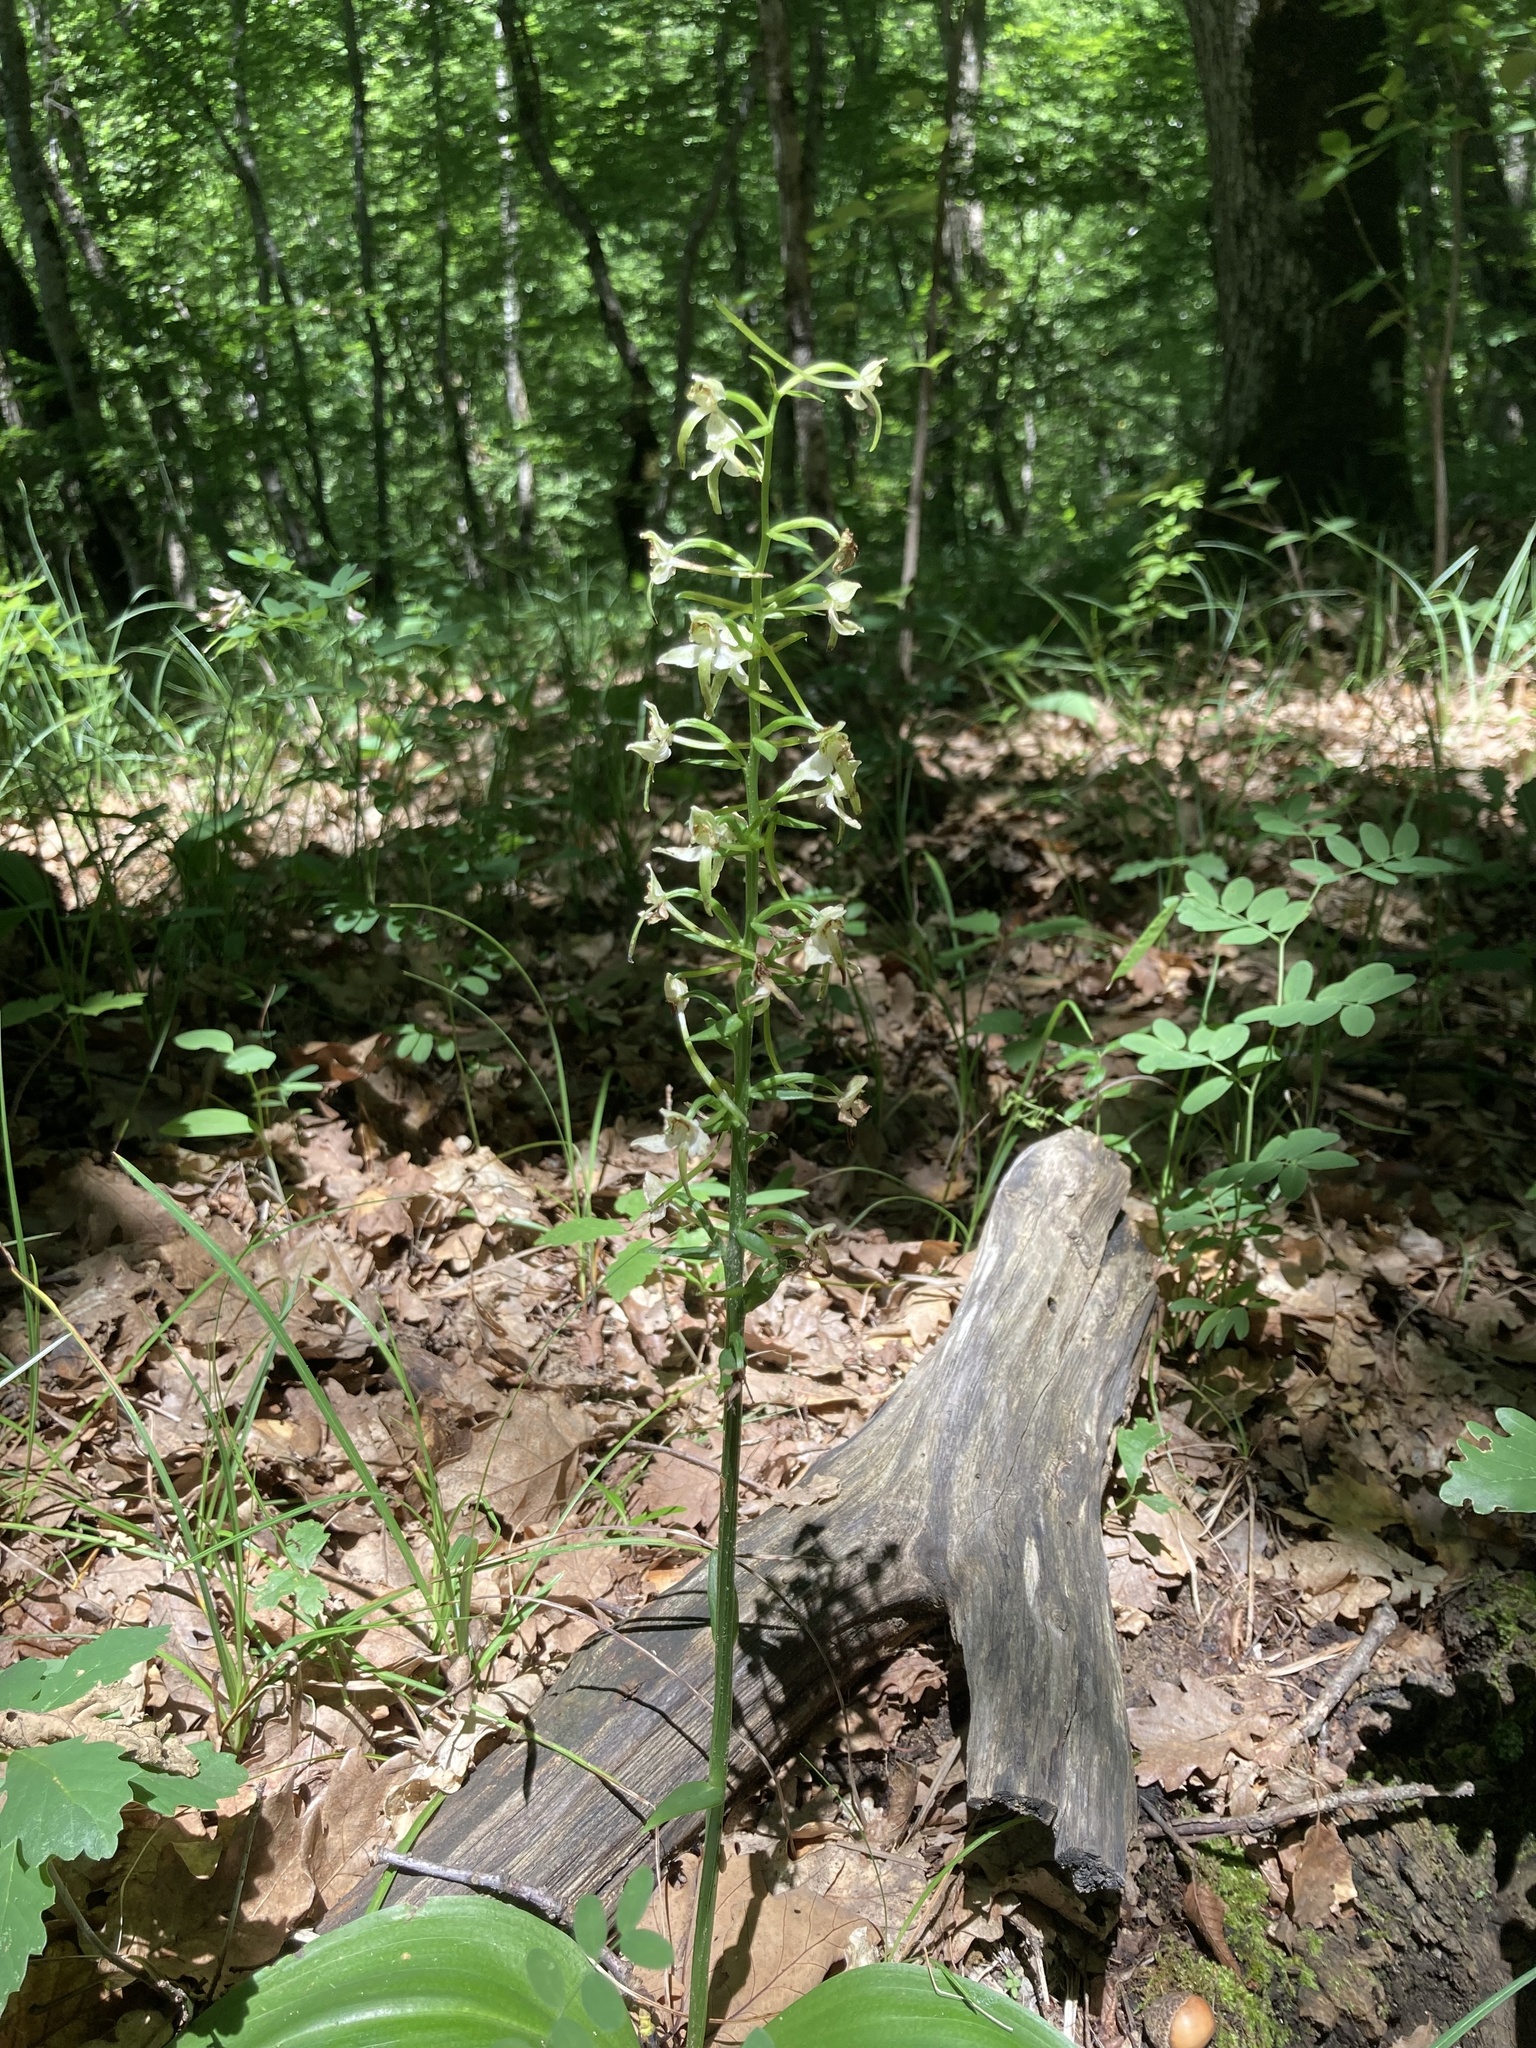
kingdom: Plantae
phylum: Tracheophyta
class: Liliopsida
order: Asparagales
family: Orchidaceae
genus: Platanthera
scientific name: Platanthera chlorantha
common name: Greater butterfly-orchid
